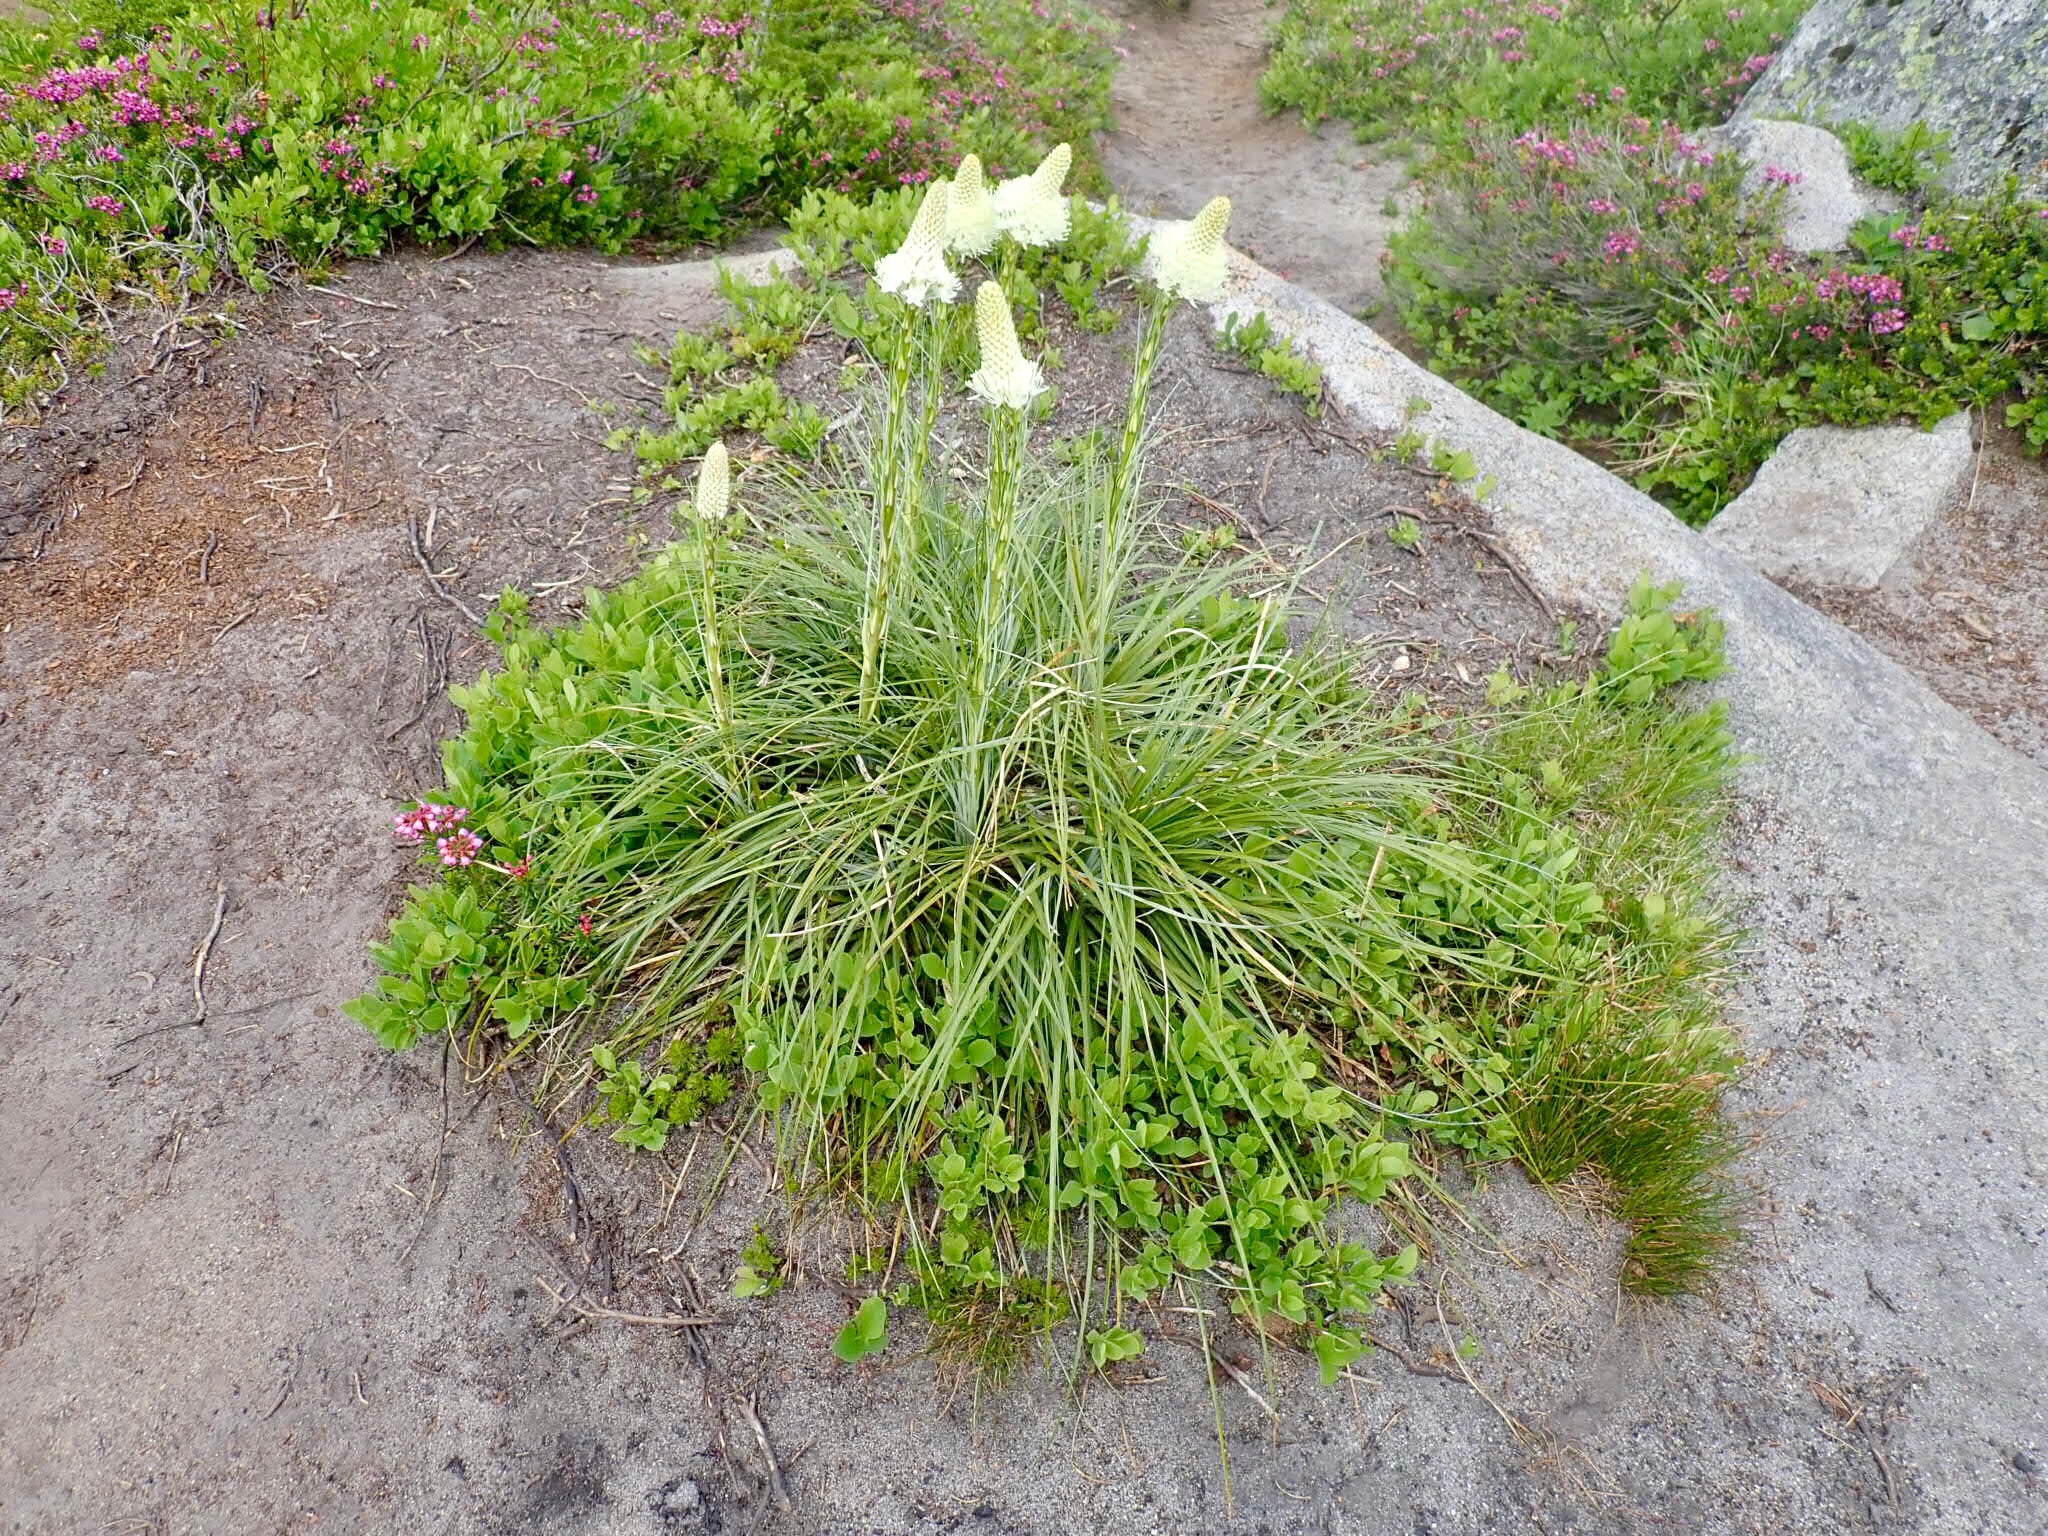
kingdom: Plantae
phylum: Tracheophyta
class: Liliopsida
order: Liliales
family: Melanthiaceae
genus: Xerophyllum
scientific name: Xerophyllum tenax
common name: Bear-grass
